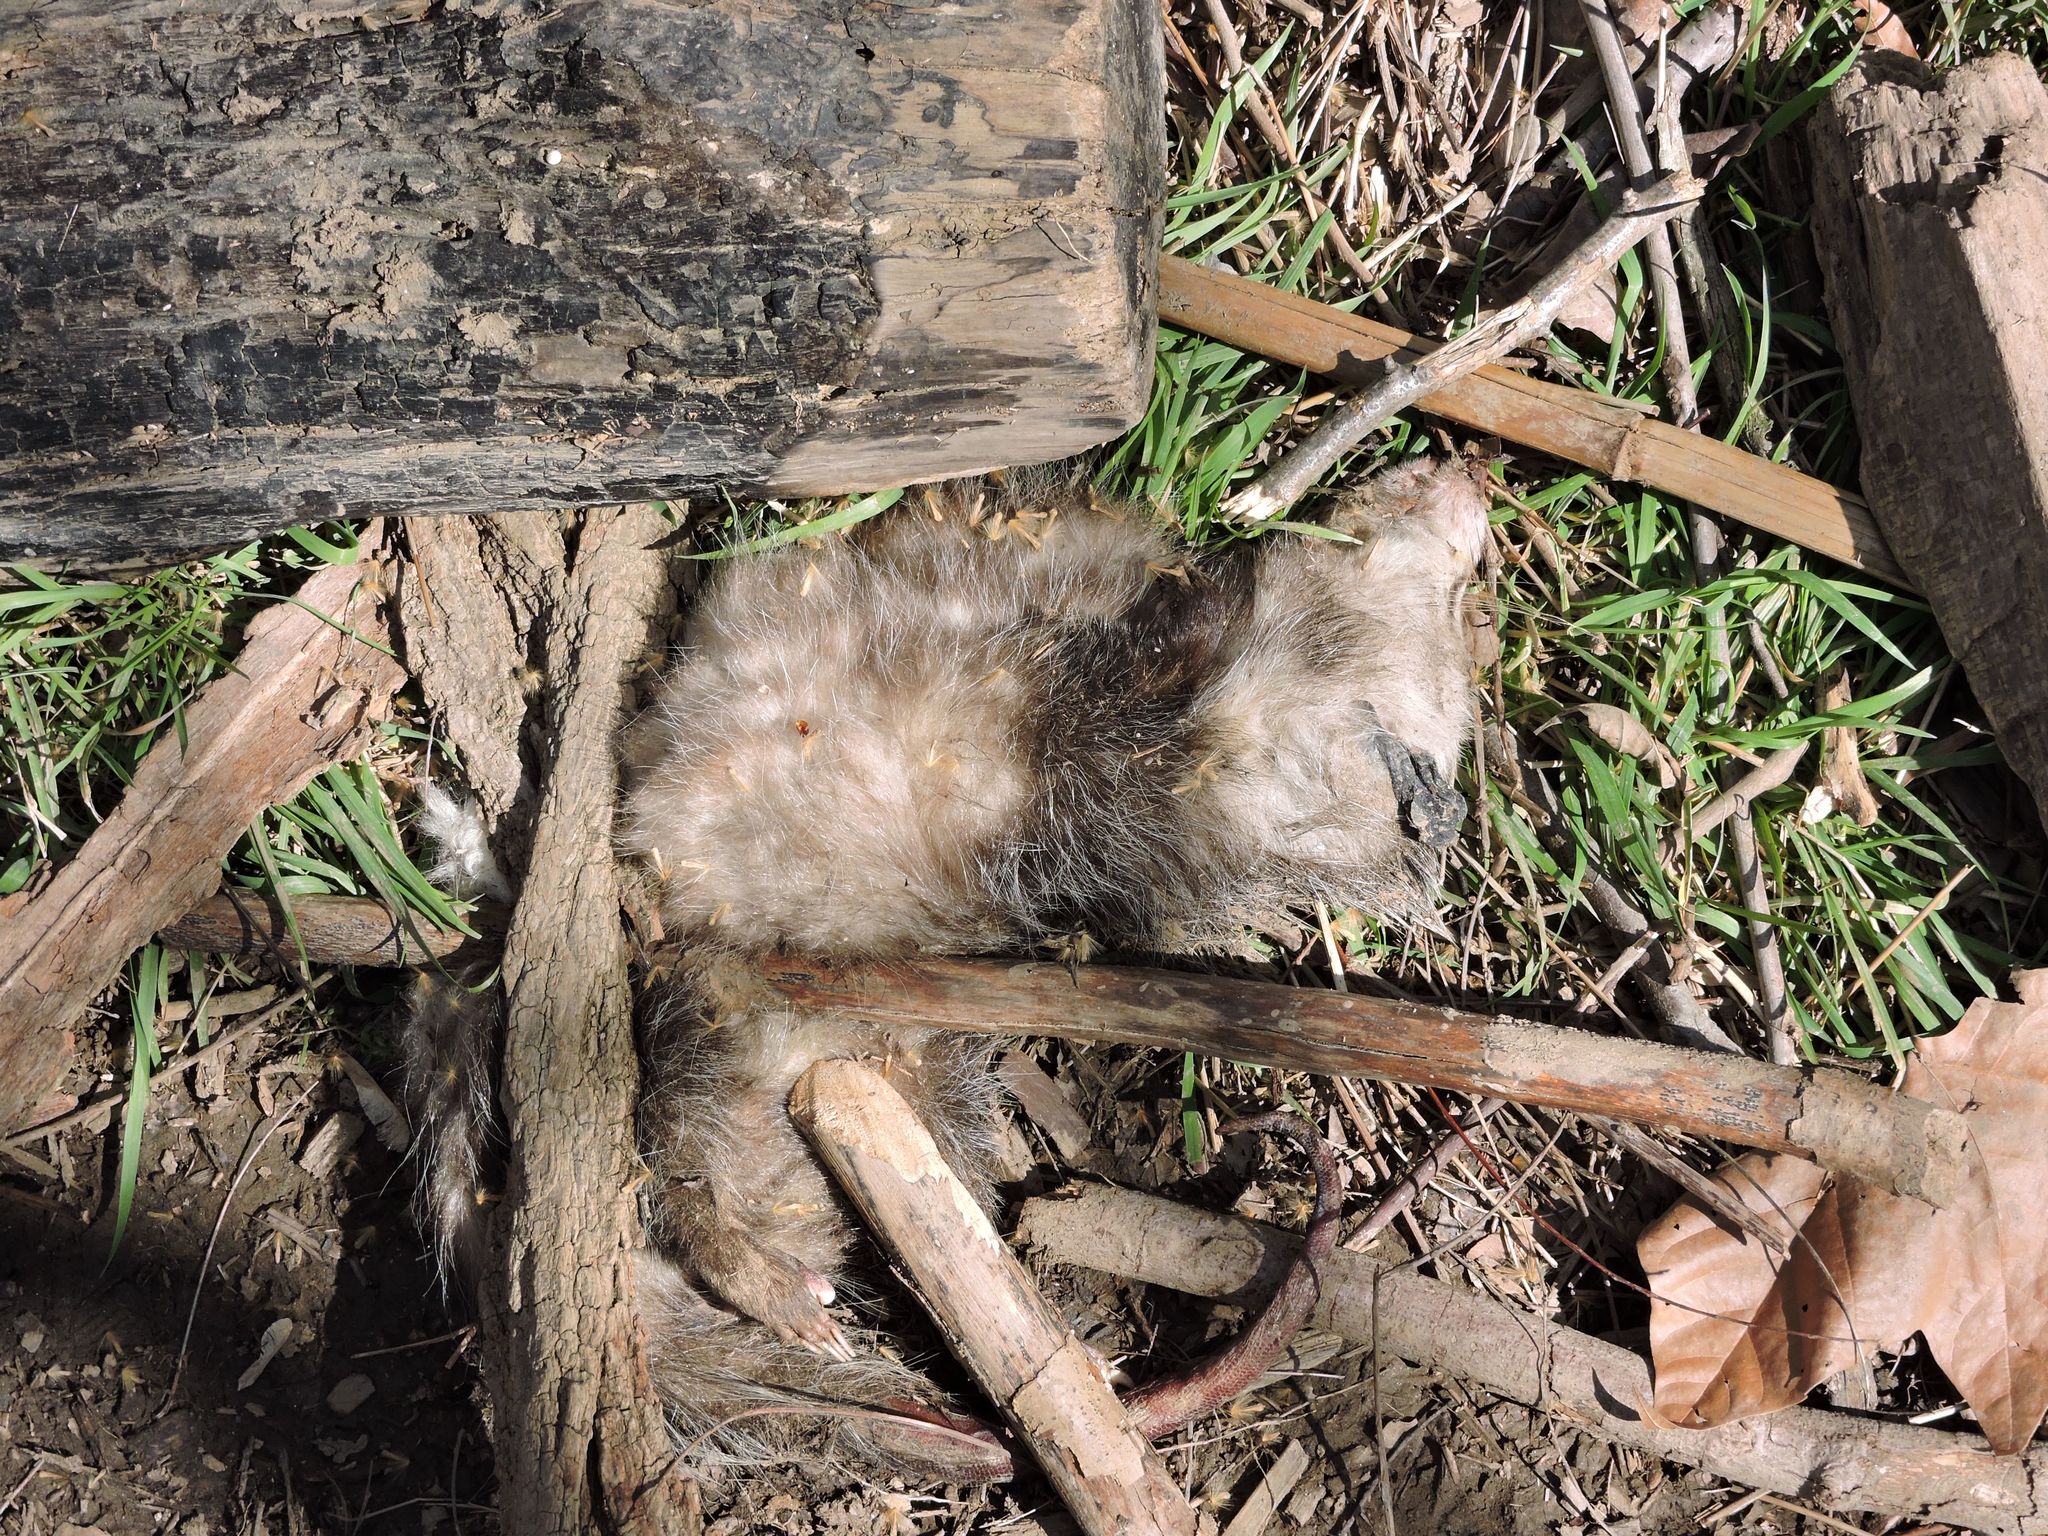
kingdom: Animalia
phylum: Chordata
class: Mammalia
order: Didelphimorphia
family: Didelphidae
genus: Didelphis
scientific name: Didelphis virginiana
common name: Virginia opossum
